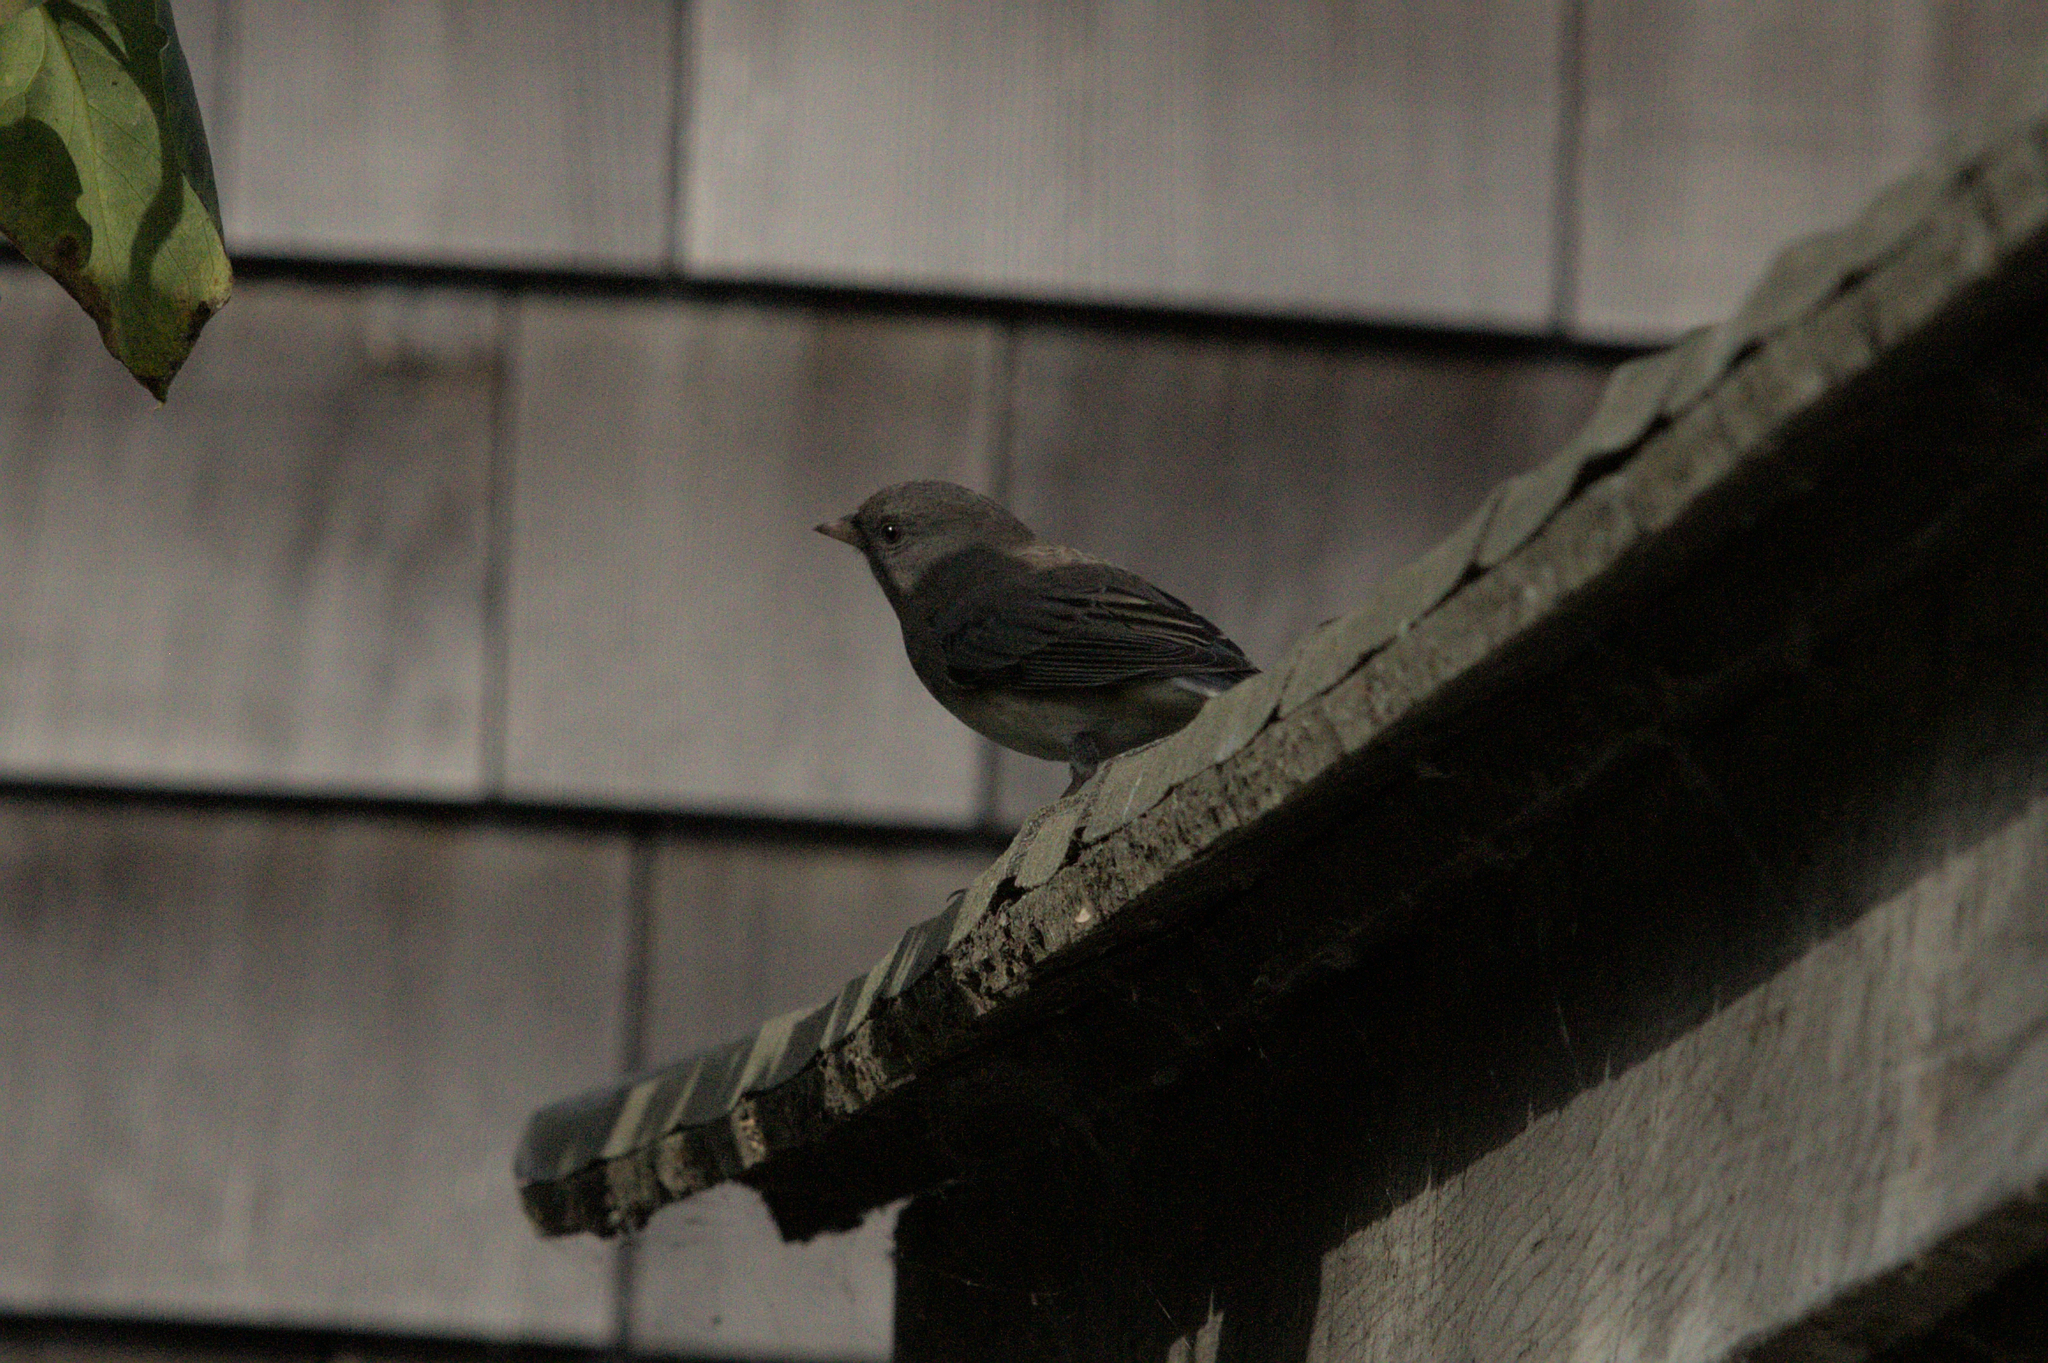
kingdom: Animalia
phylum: Chordata
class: Aves
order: Passeriformes
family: Passerellidae
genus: Junco
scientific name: Junco hyemalis
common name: Dark-eyed junco
